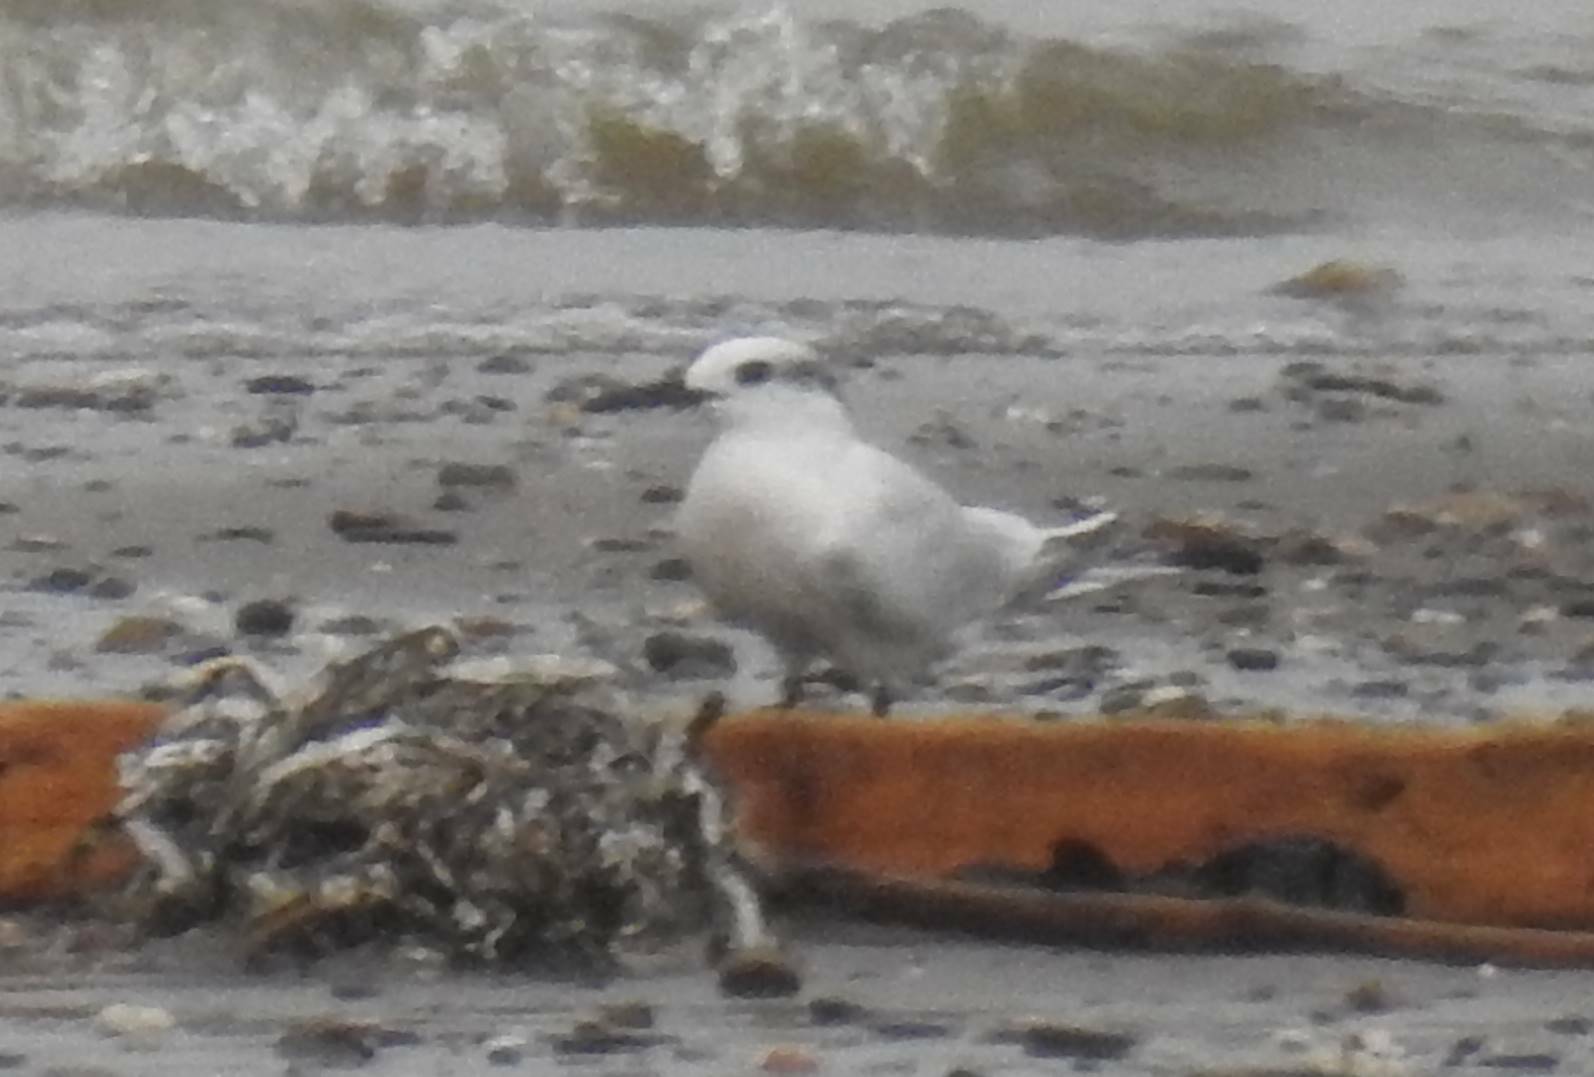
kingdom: Animalia
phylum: Chordata
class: Aves
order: Charadriiformes
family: Laridae
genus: Thalasseus
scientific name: Thalasseus sandvicensis
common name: Sandwich tern
